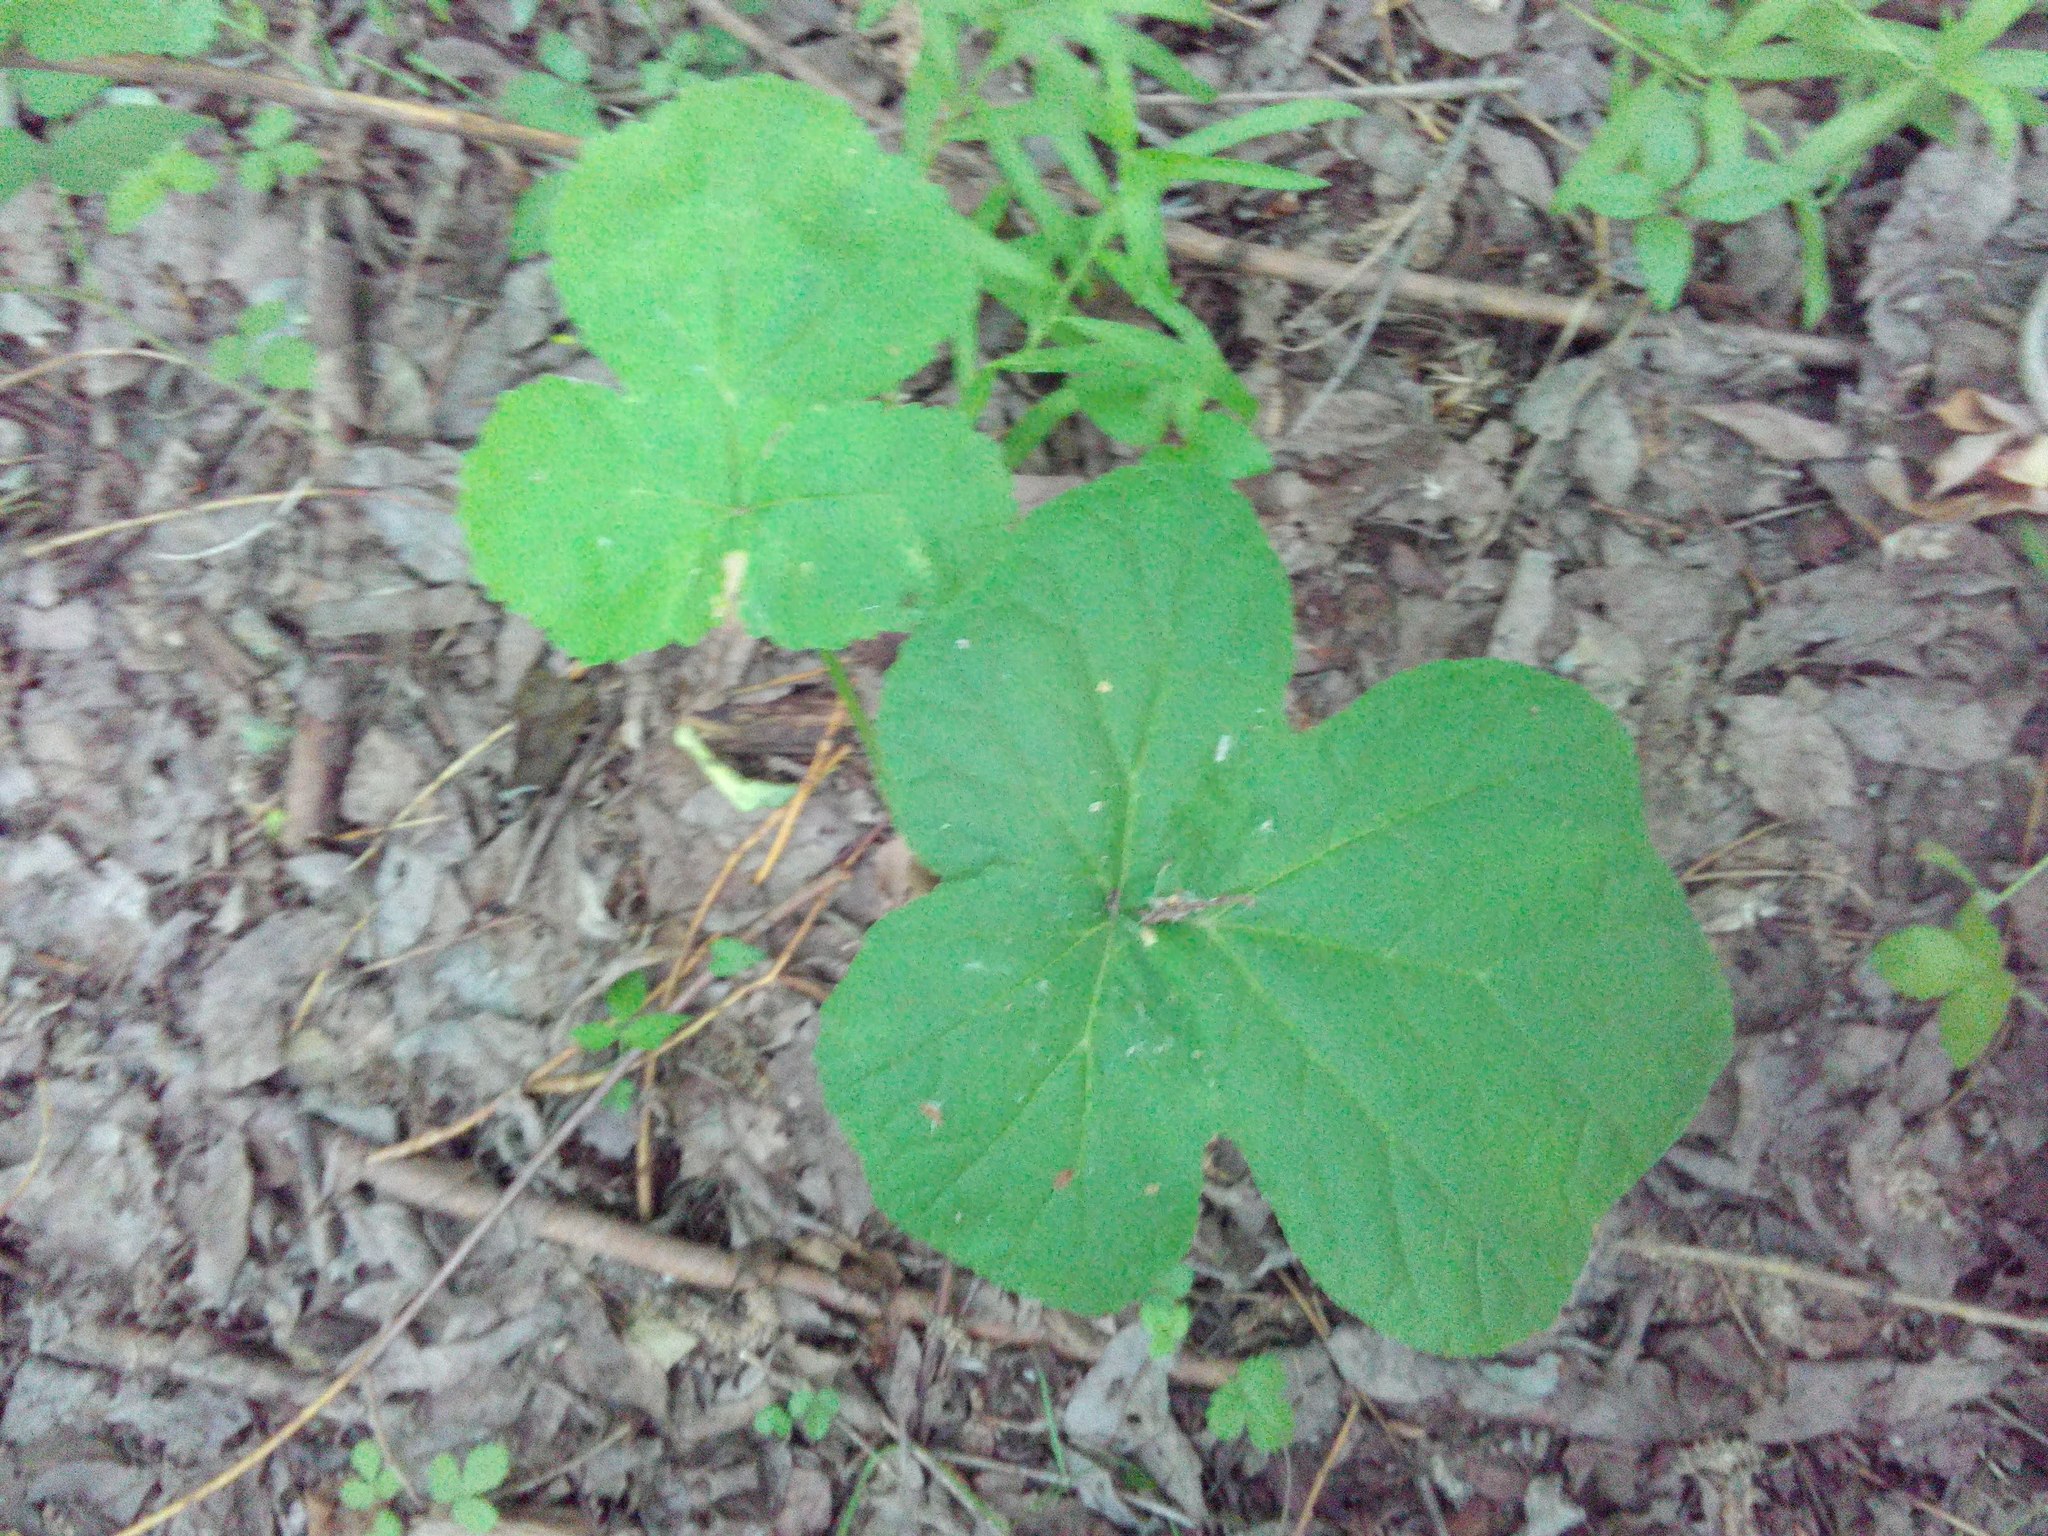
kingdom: Plantae
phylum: Tracheophyta
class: Magnoliopsida
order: Apiales
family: Apiaceae
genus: Heracleum
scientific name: Heracleum sosnowskyi
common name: Sosnowsky's hogweed
